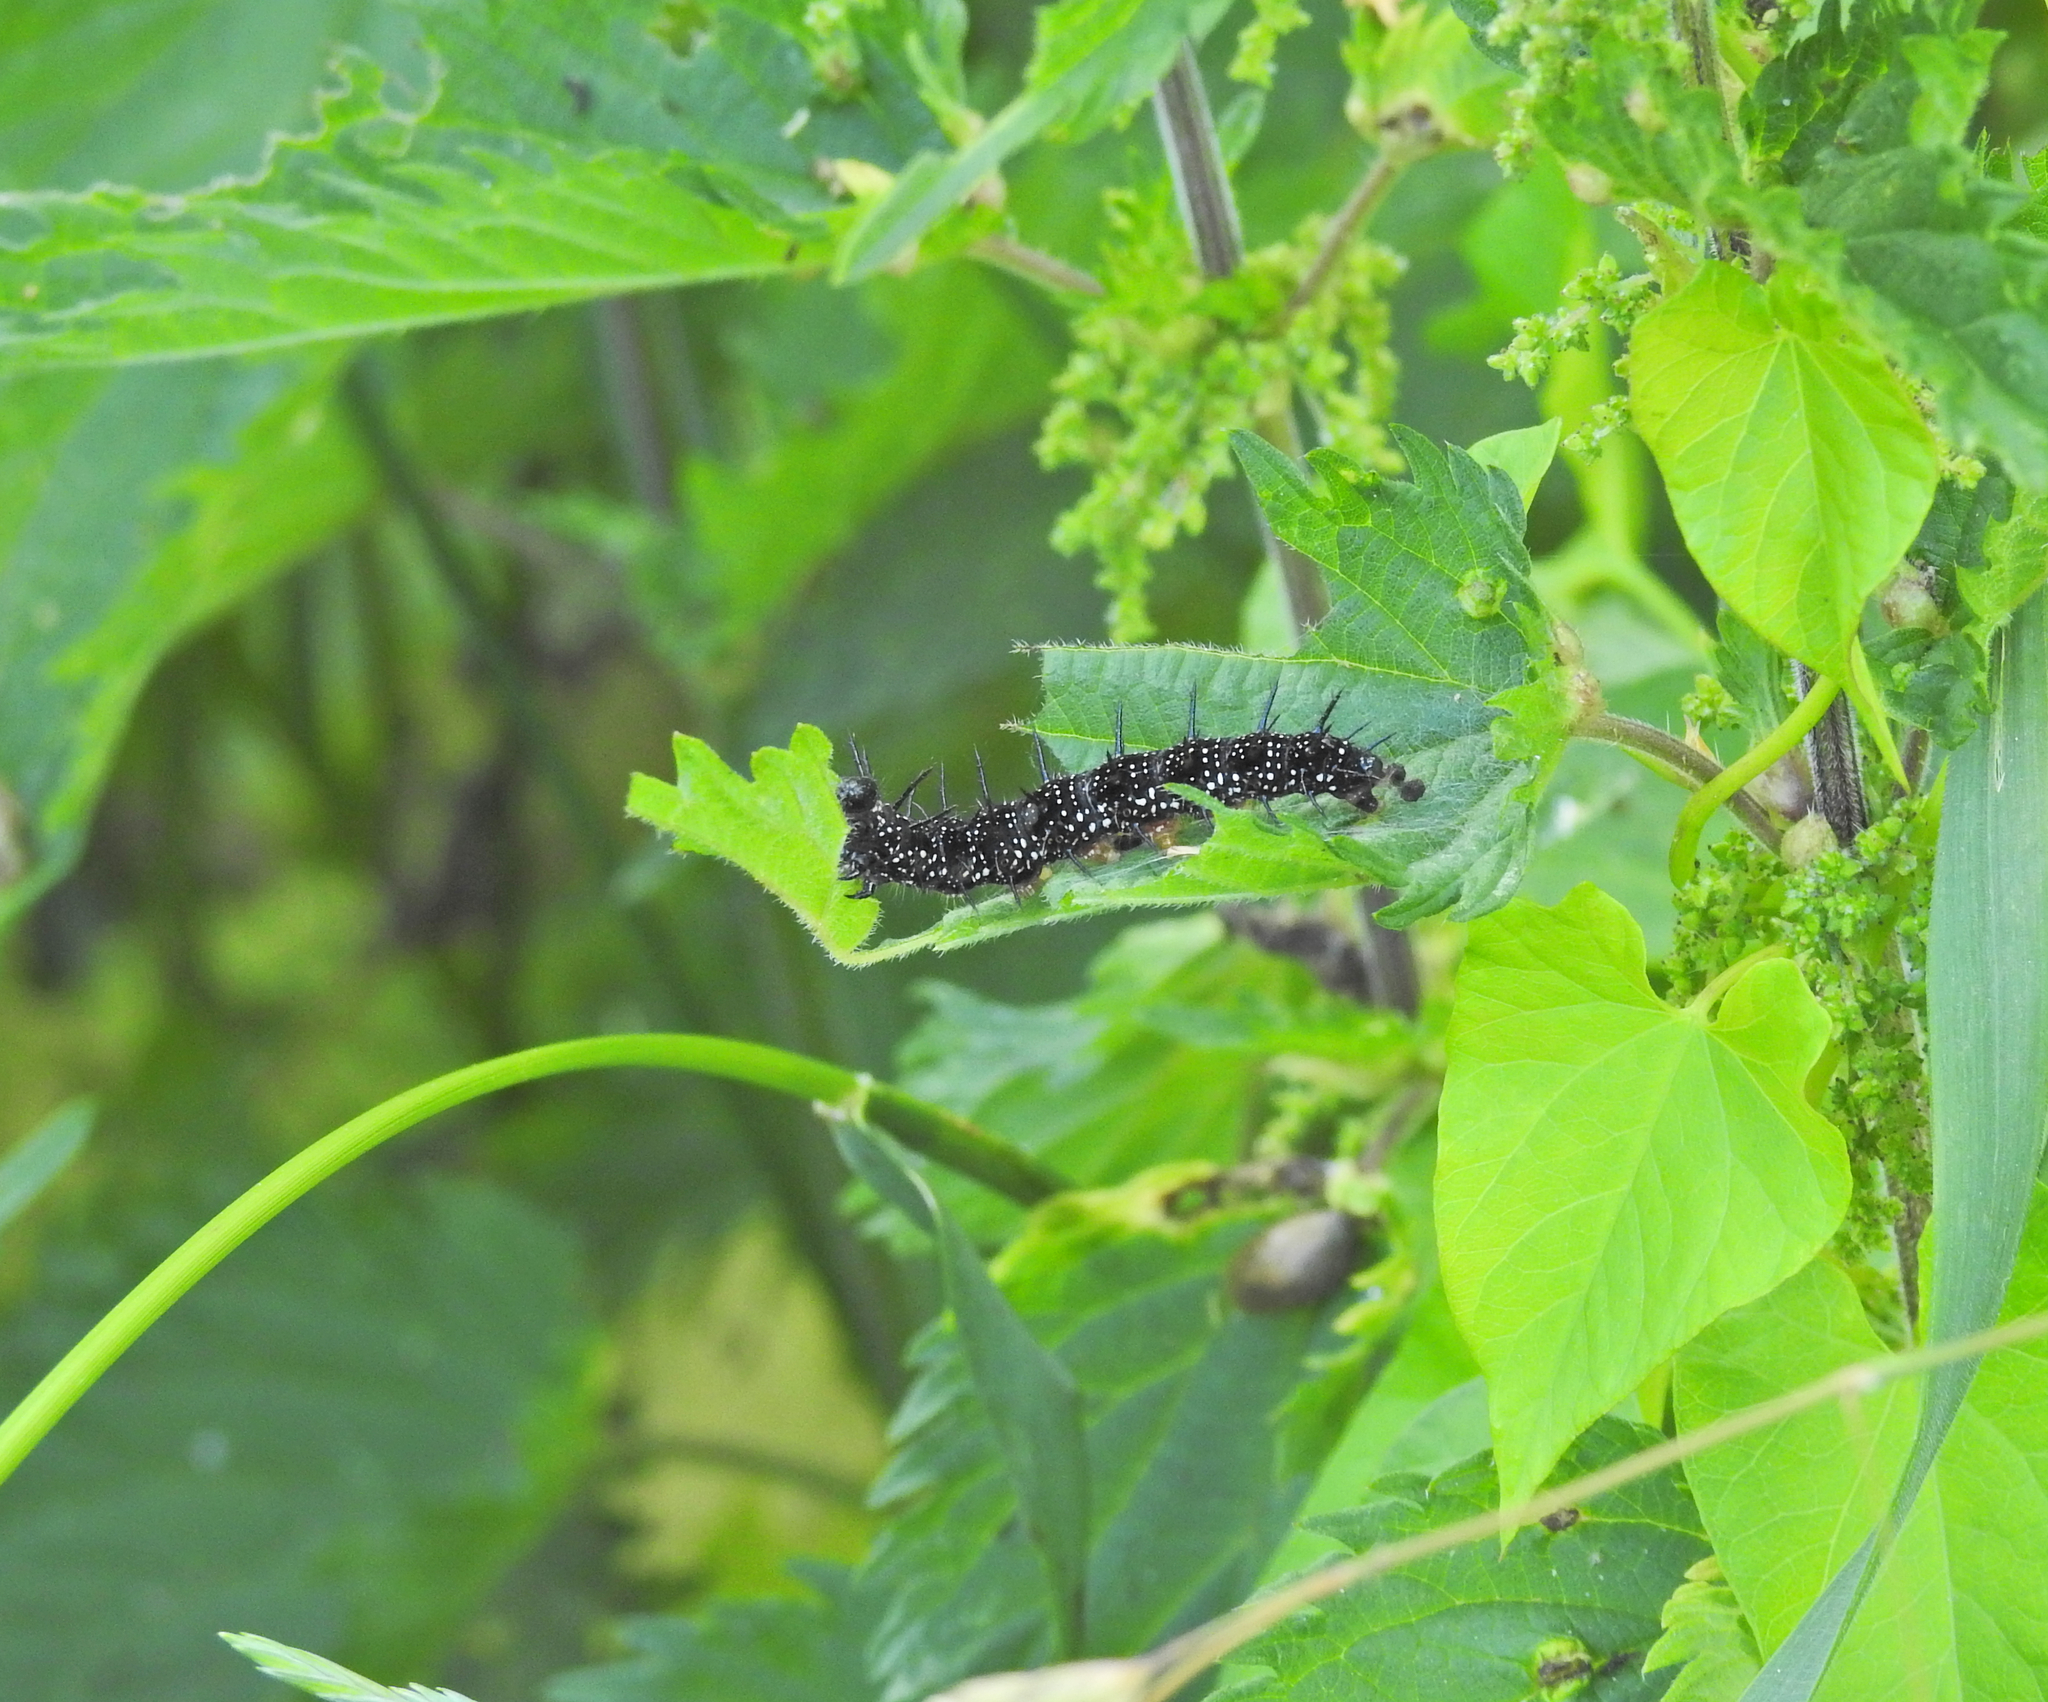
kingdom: Animalia
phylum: Arthropoda
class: Insecta
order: Lepidoptera
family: Nymphalidae
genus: Aglais
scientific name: Aglais io
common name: Peacock
